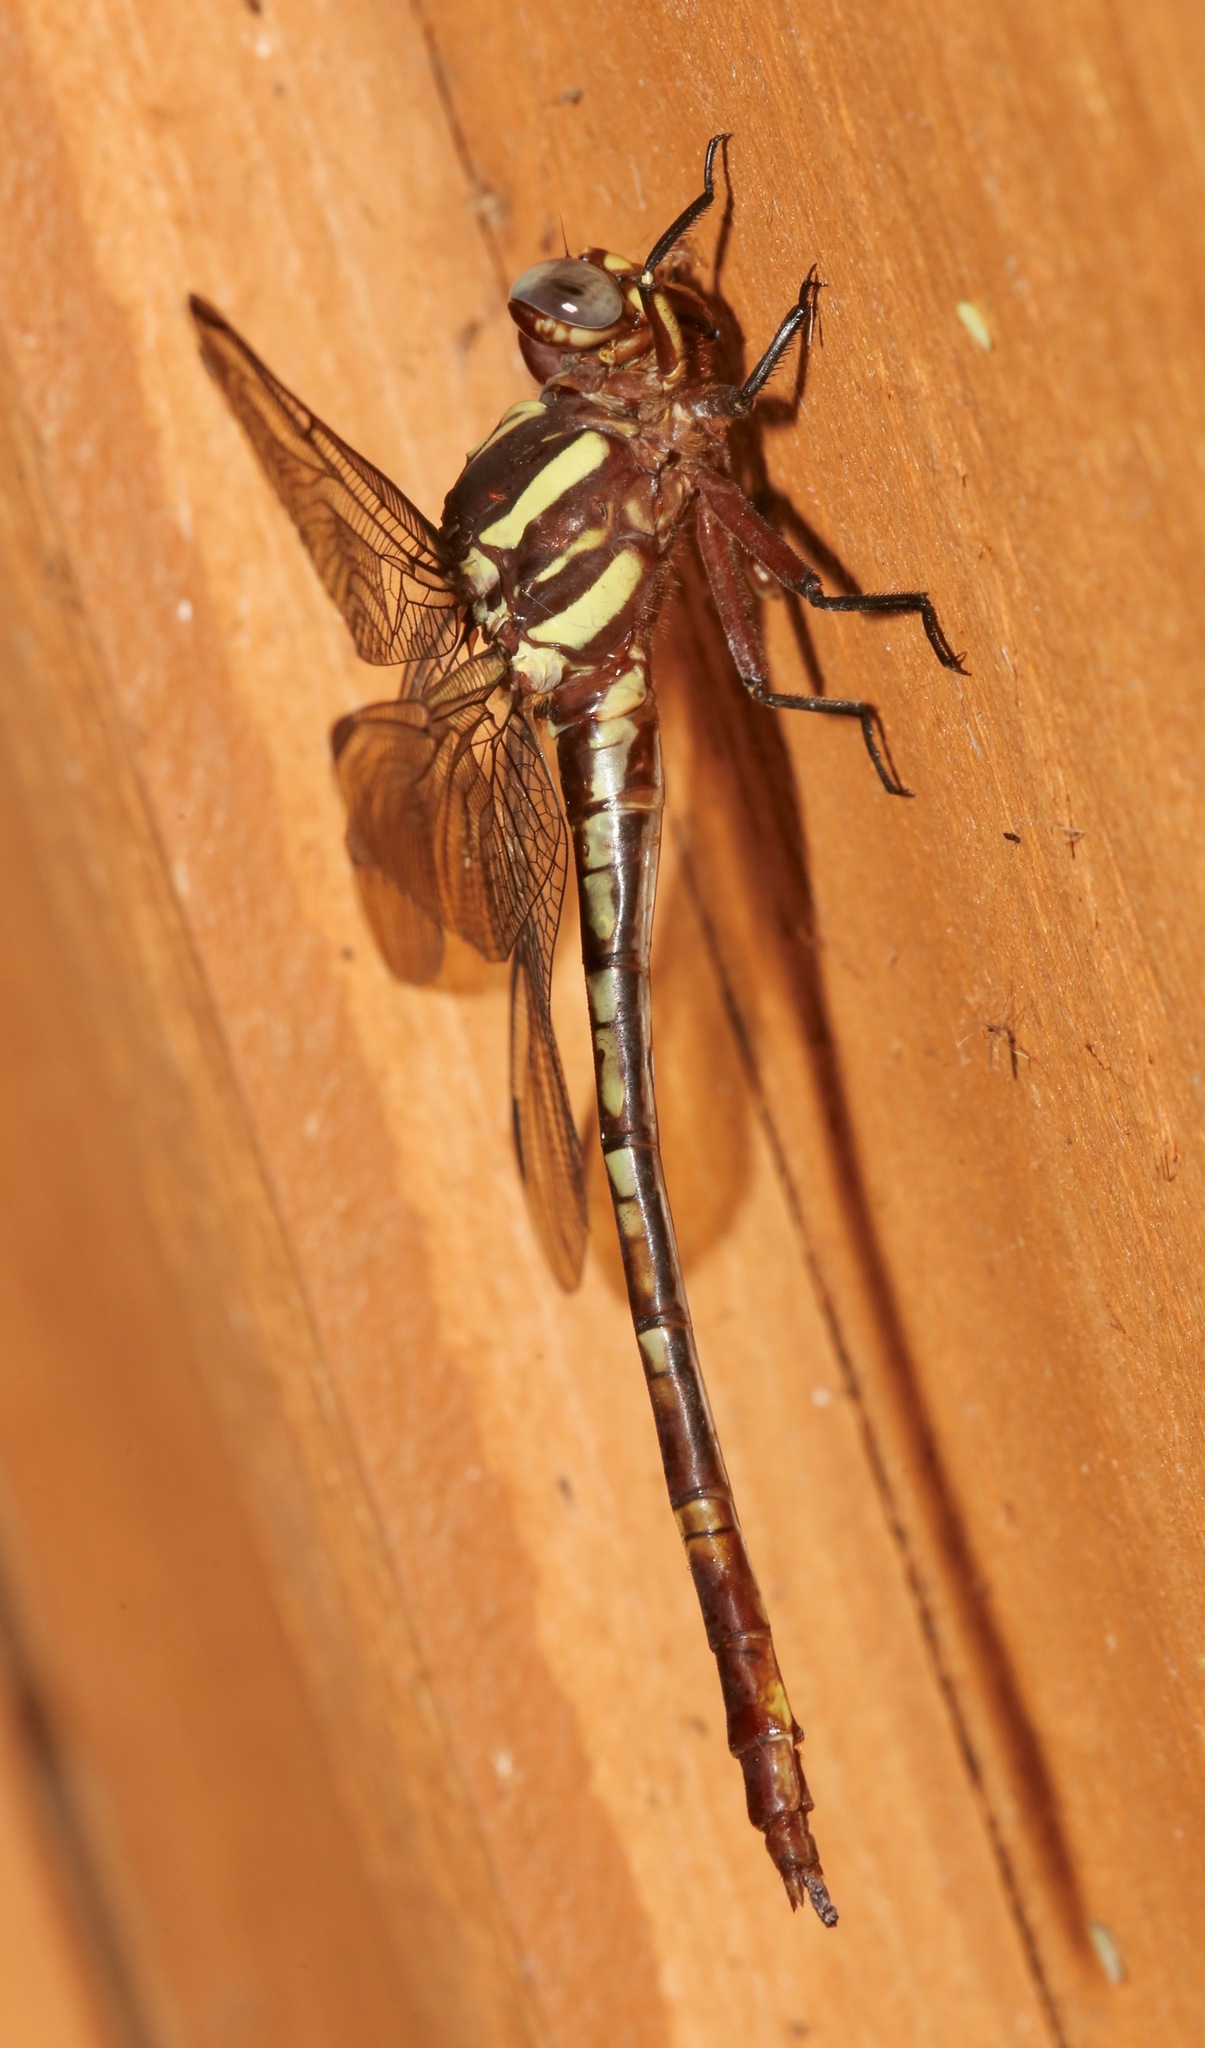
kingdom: Animalia
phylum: Arthropoda
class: Insecta
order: Odonata
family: Gomphidae
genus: Aphylla
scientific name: Aphylla williamsoni
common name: Two-striped forceptail
